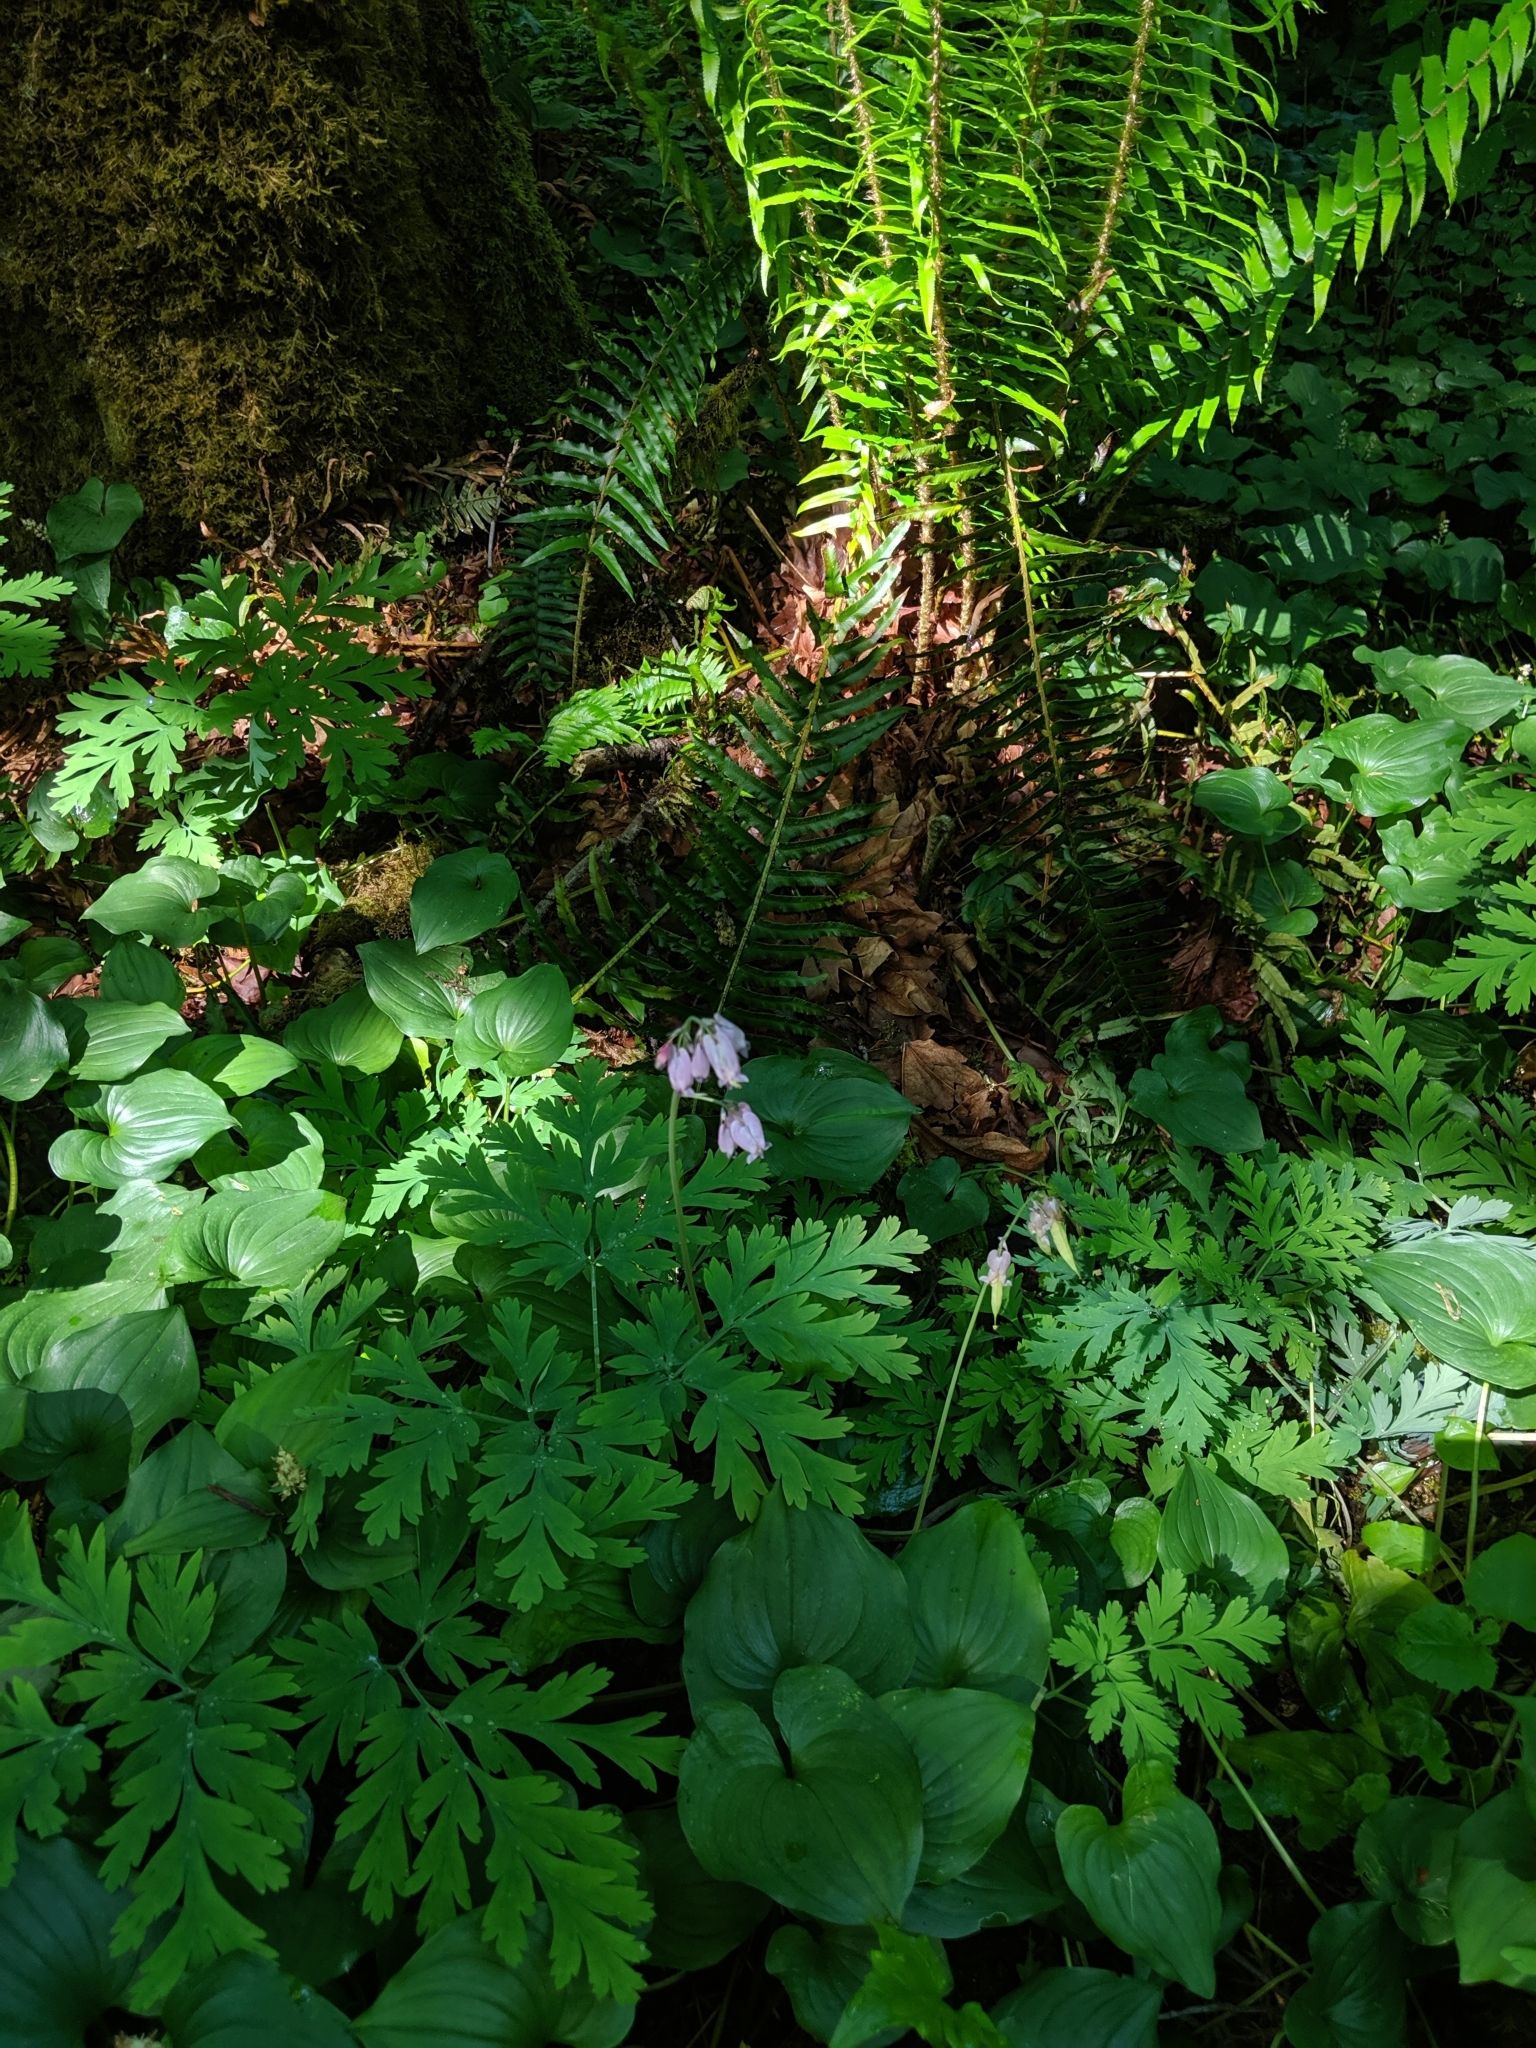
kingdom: Plantae
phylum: Tracheophyta
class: Magnoliopsida
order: Ranunculales
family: Papaveraceae
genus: Dicentra
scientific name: Dicentra formosa
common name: Bleeding-heart
